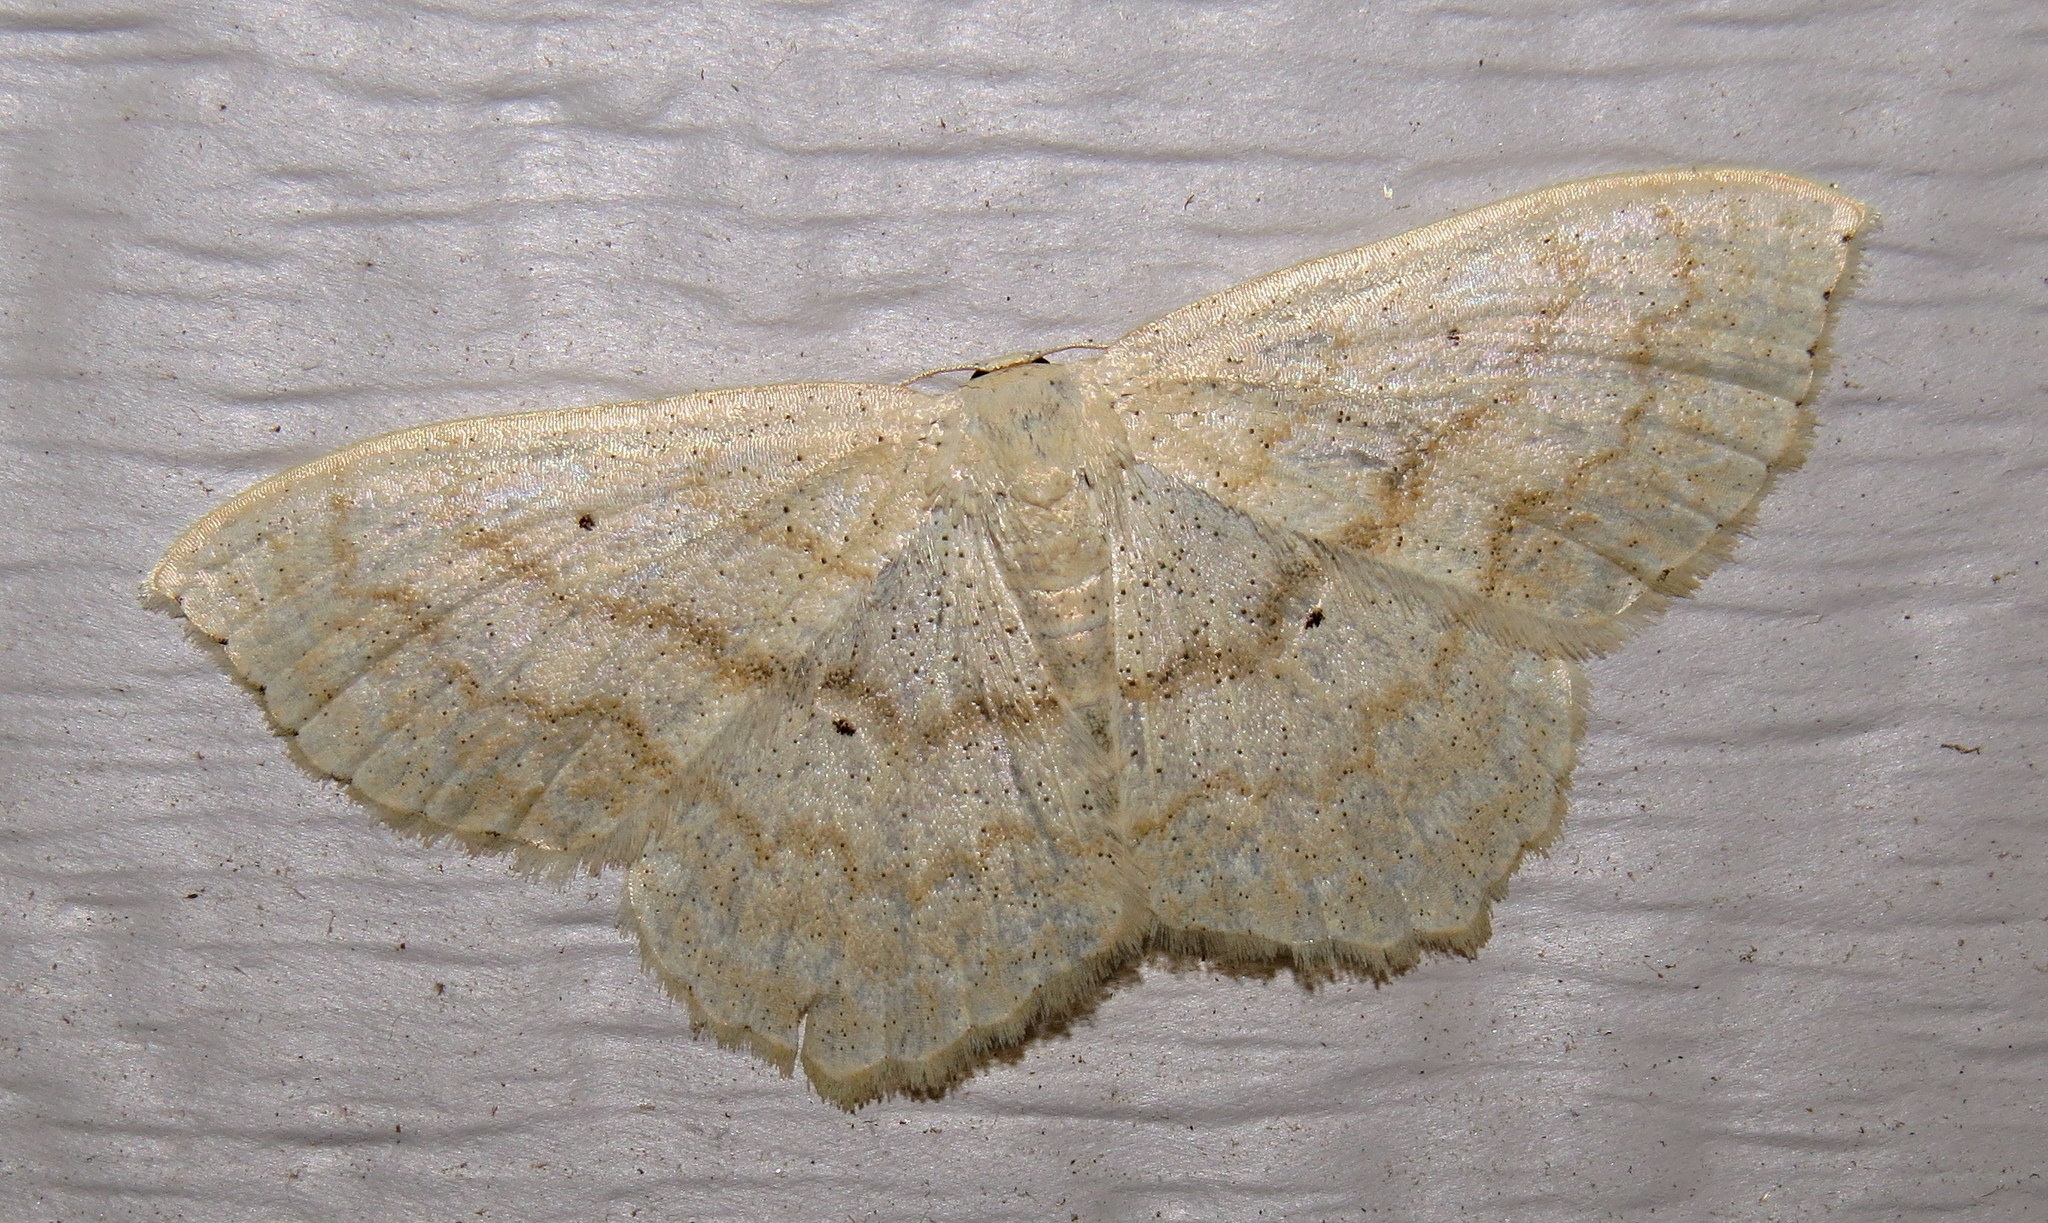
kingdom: Animalia
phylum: Arthropoda
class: Insecta
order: Lepidoptera
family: Geometridae
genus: Scopula
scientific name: Scopula limboundata
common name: Large lace border
